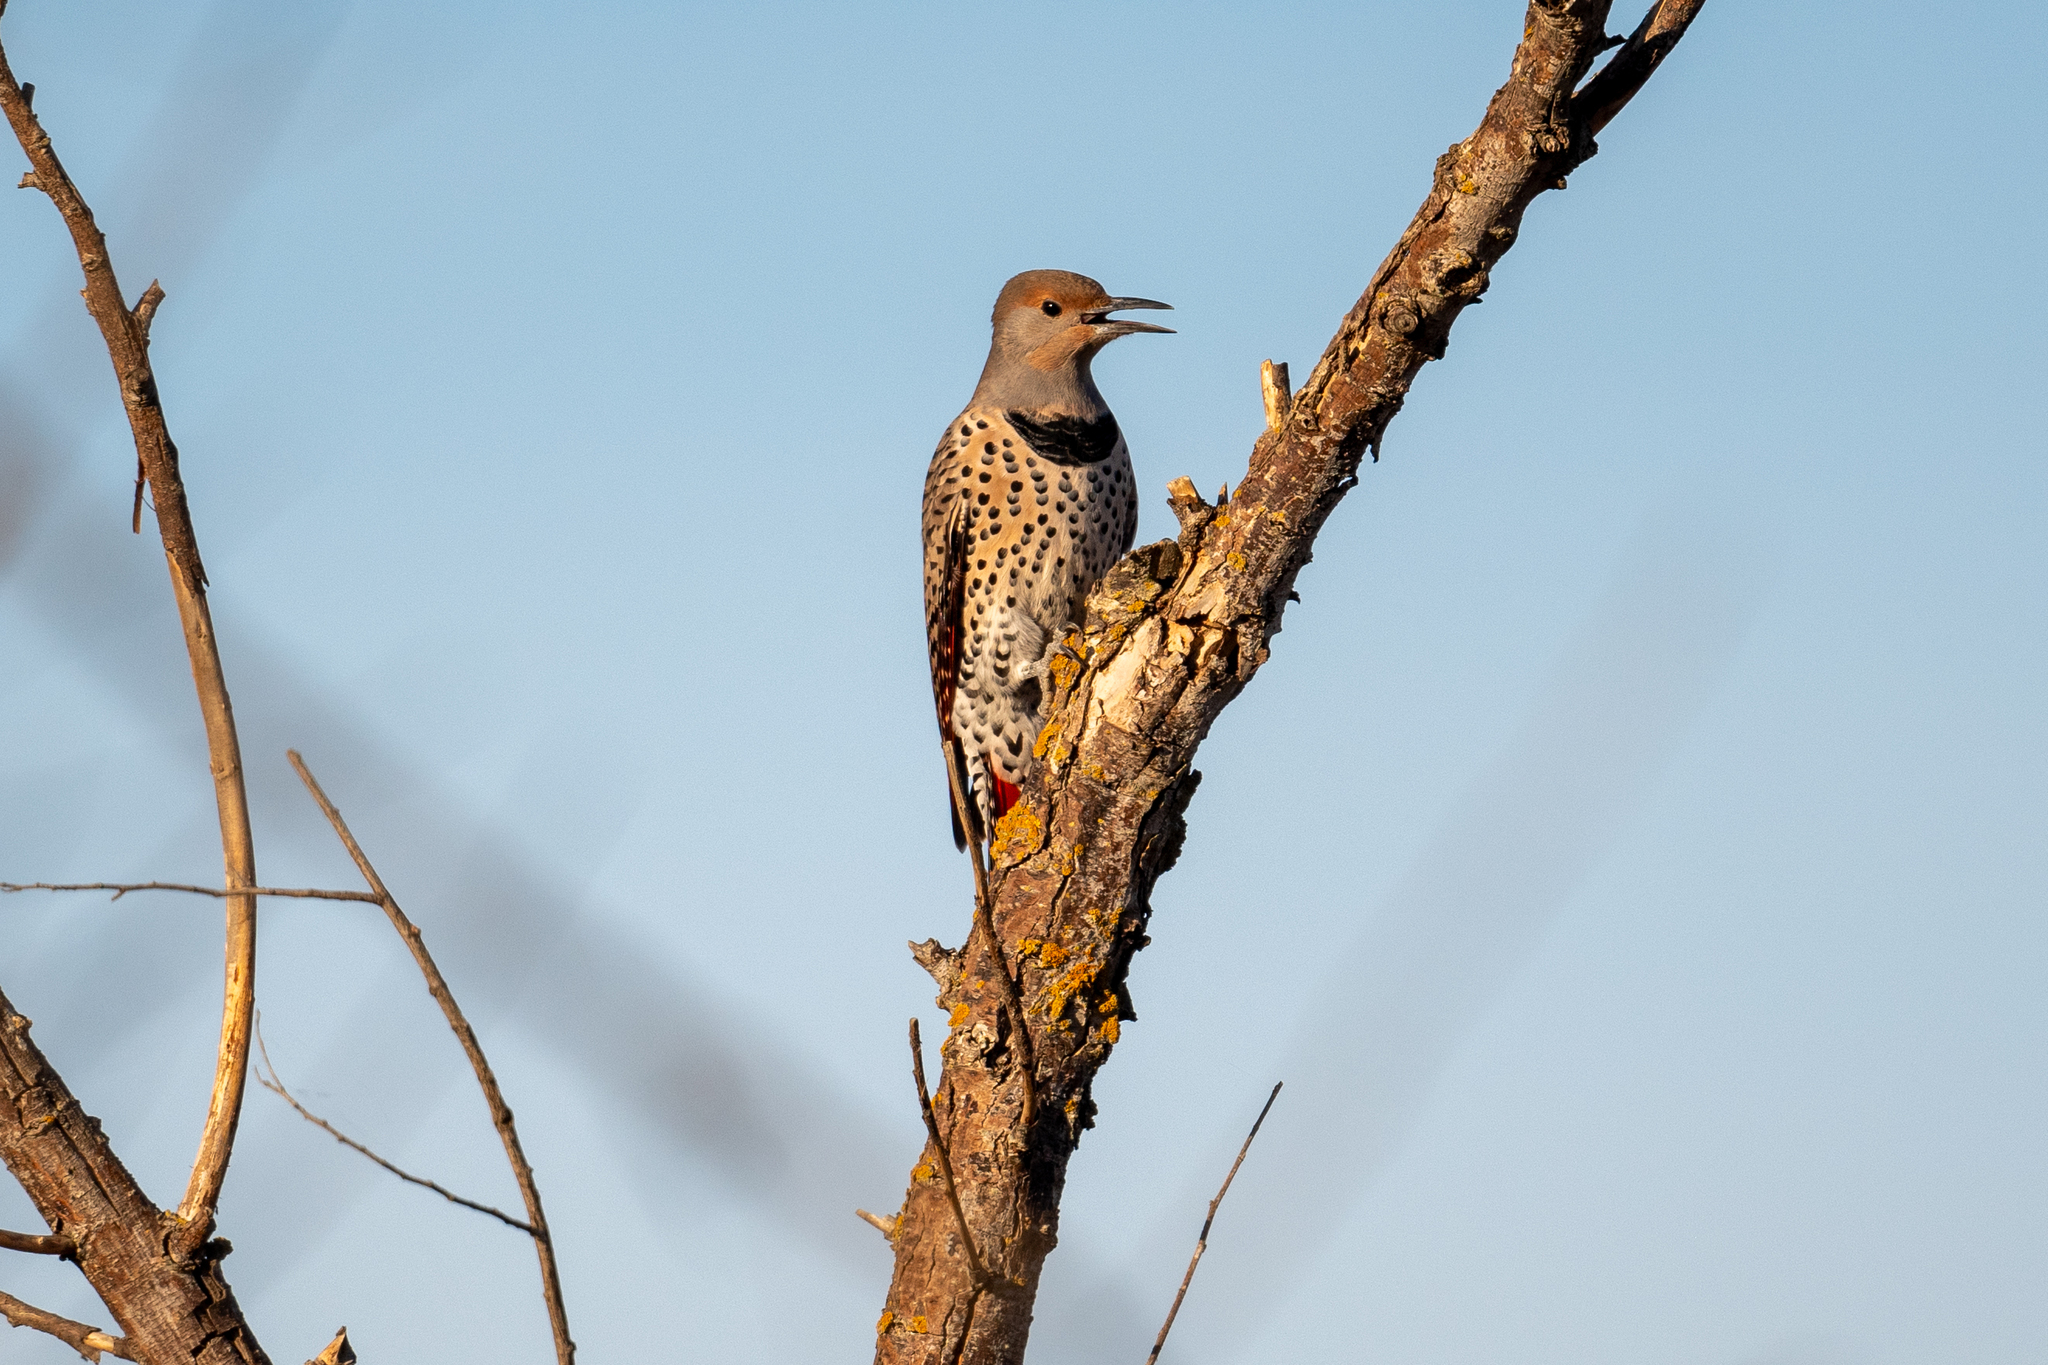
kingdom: Animalia
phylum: Chordata
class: Aves
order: Piciformes
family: Picidae
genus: Colaptes
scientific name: Colaptes auratus
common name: Northern flicker
